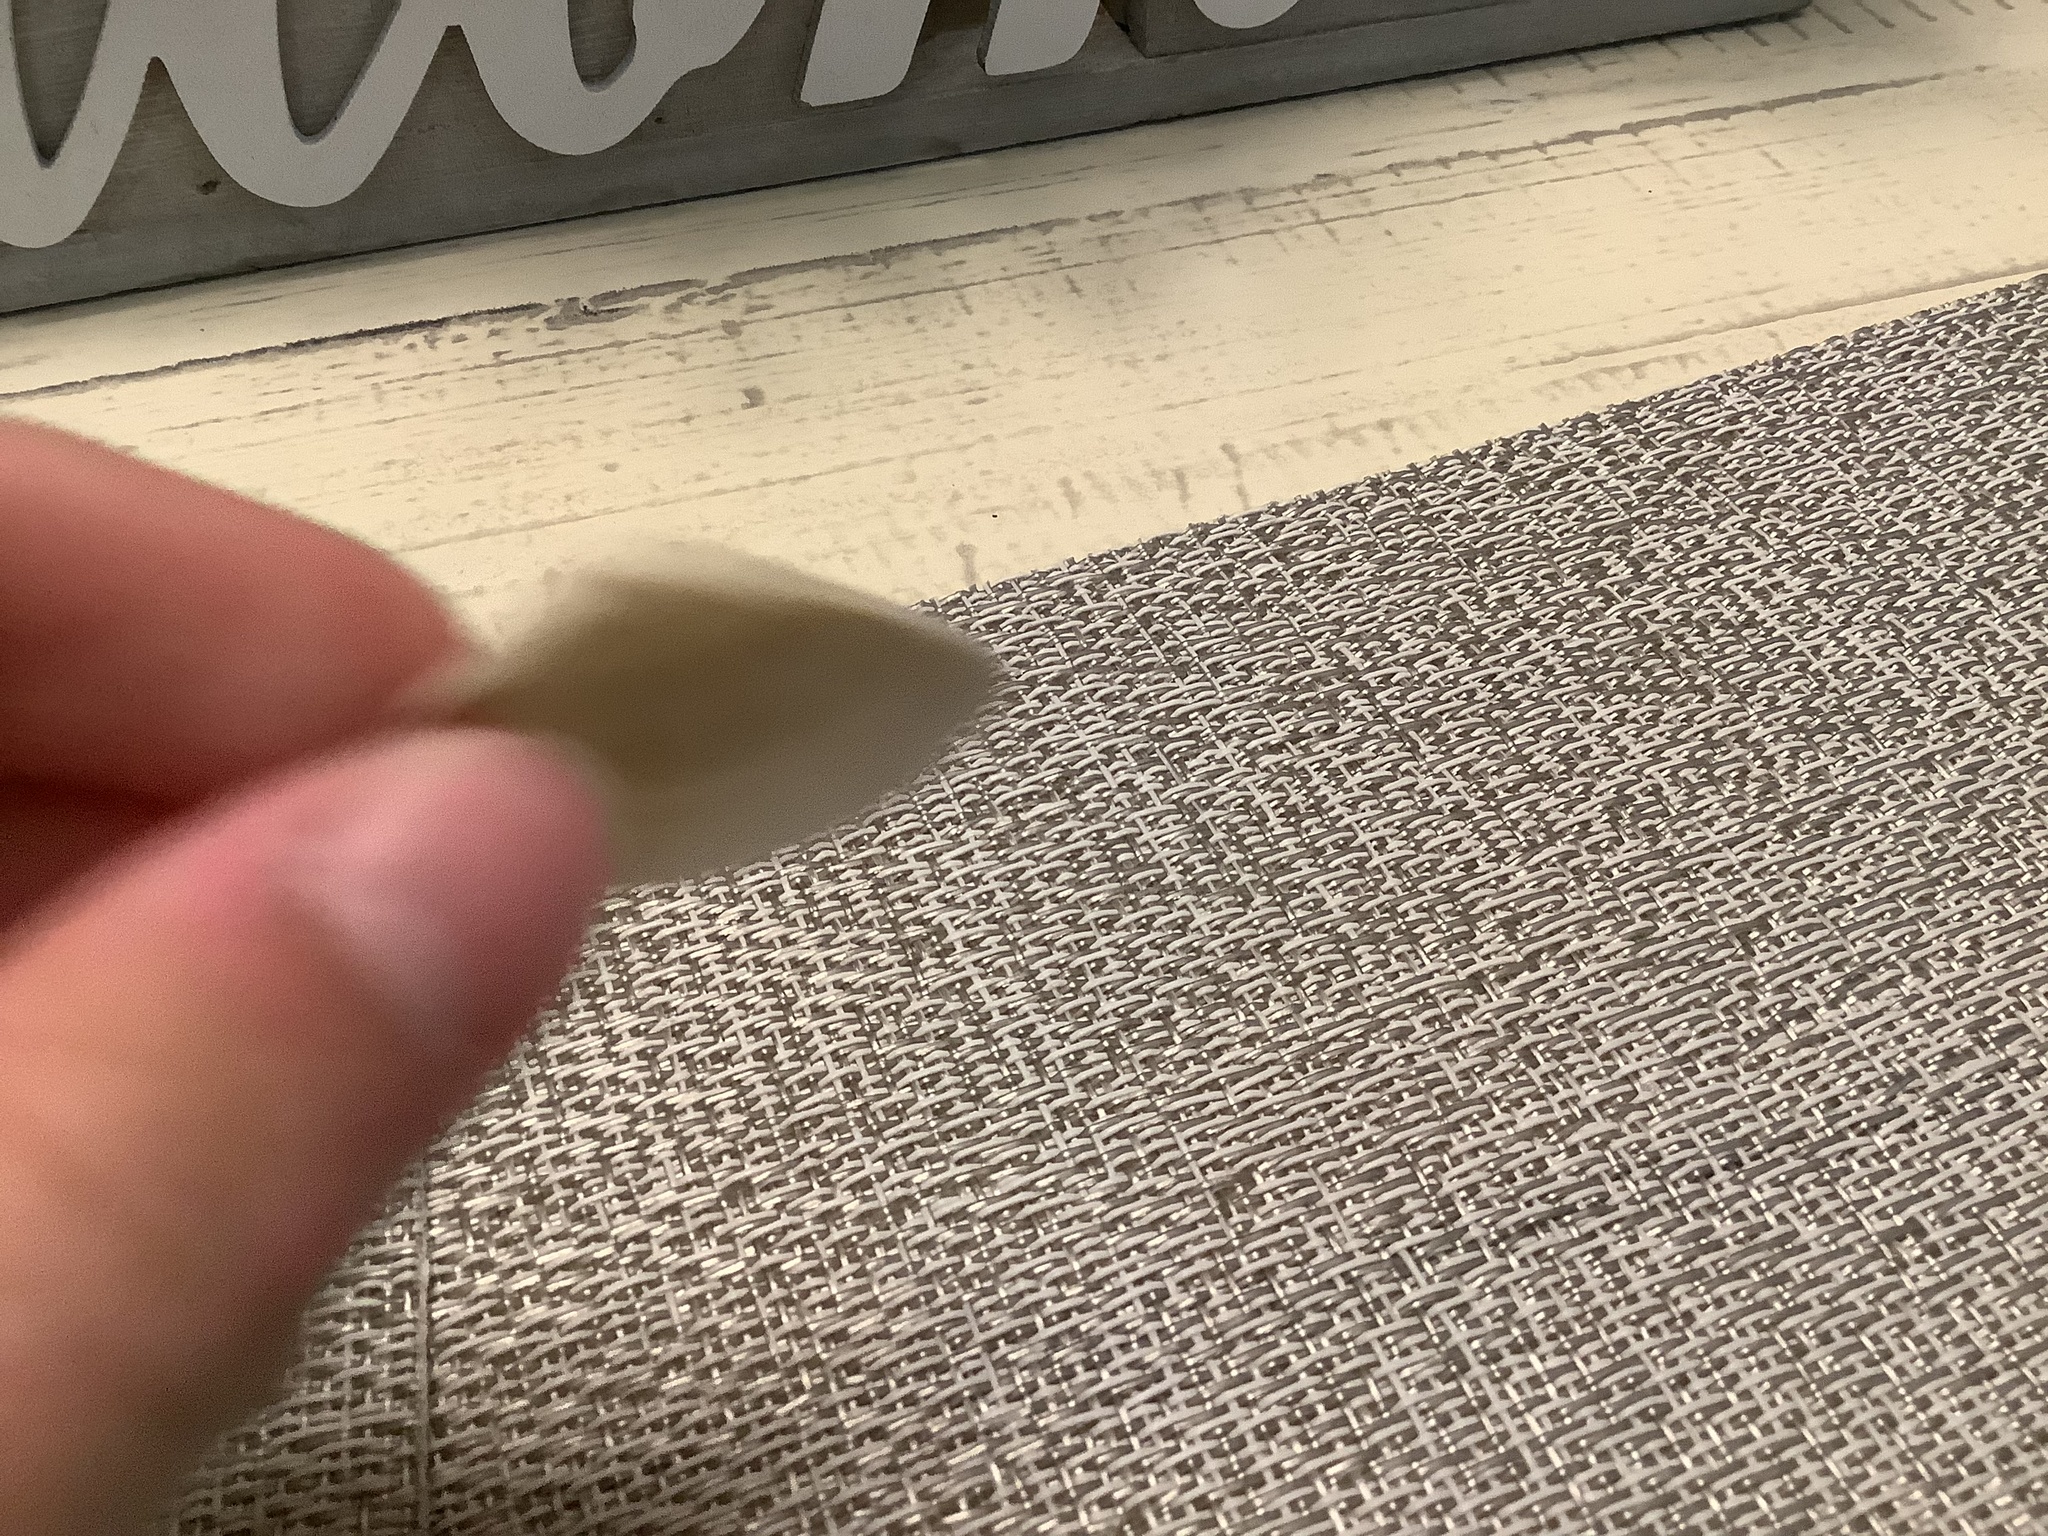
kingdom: Animalia
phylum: Mollusca
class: Bivalvia
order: Venerida
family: Mactridae
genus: Spisula
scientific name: Spisula raveneli
